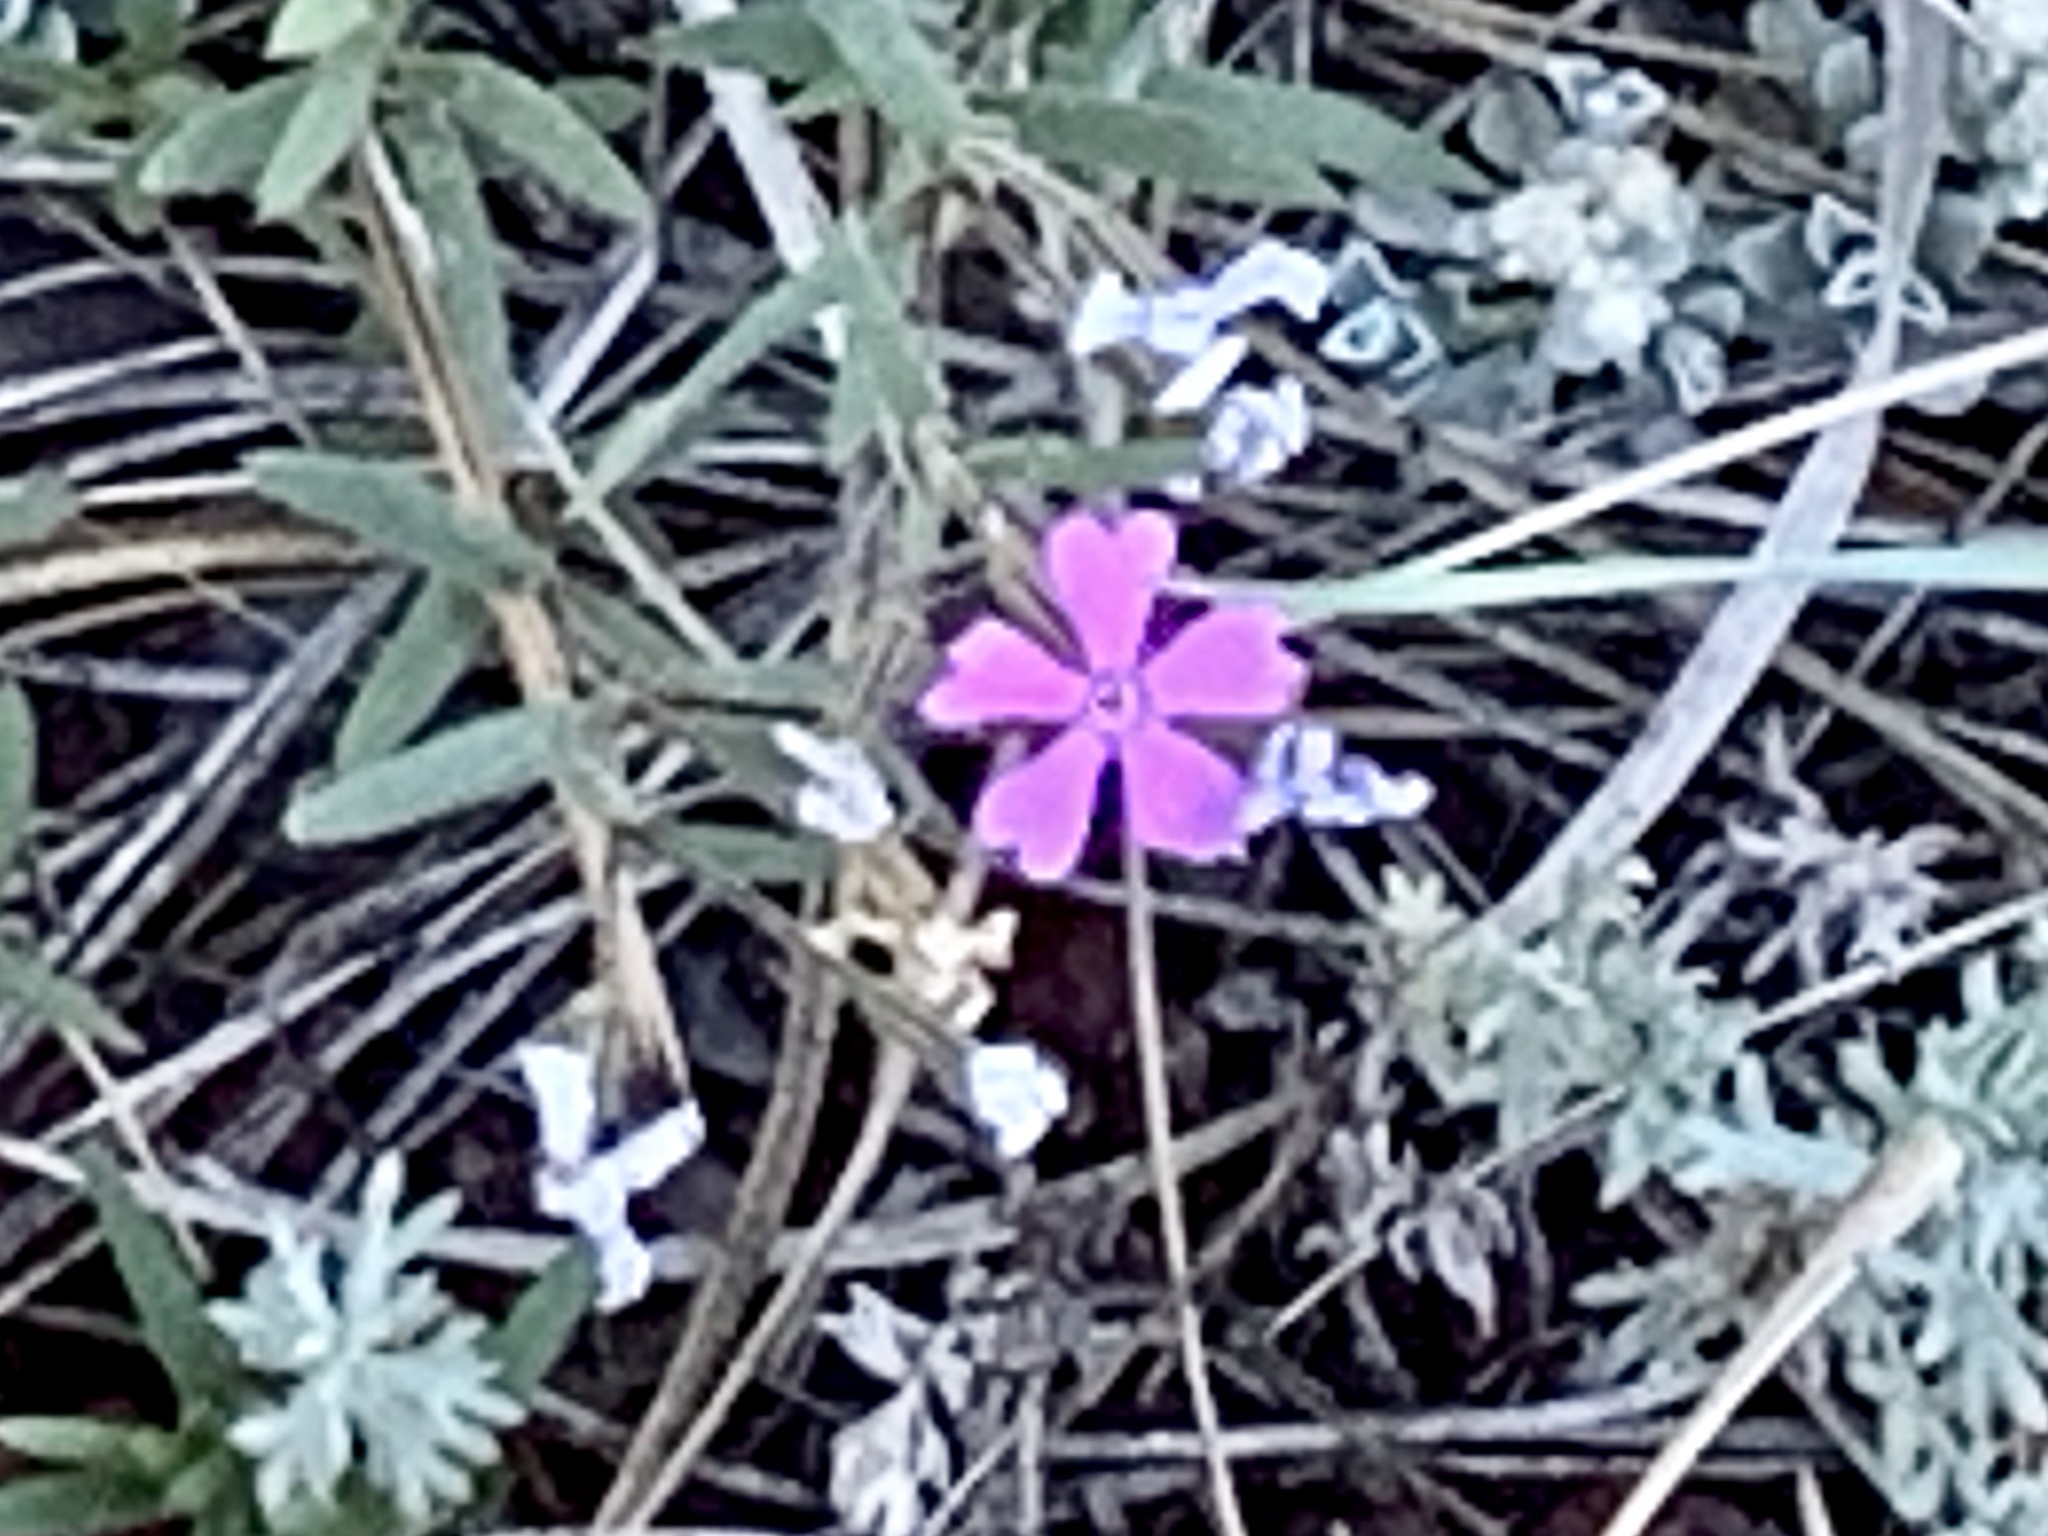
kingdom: Plantae
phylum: Tracheophyta
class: Magnoliopsida
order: Ericales
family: Polemoniaceae
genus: Phlox
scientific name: Phlox woodhousei
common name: Star phlox
